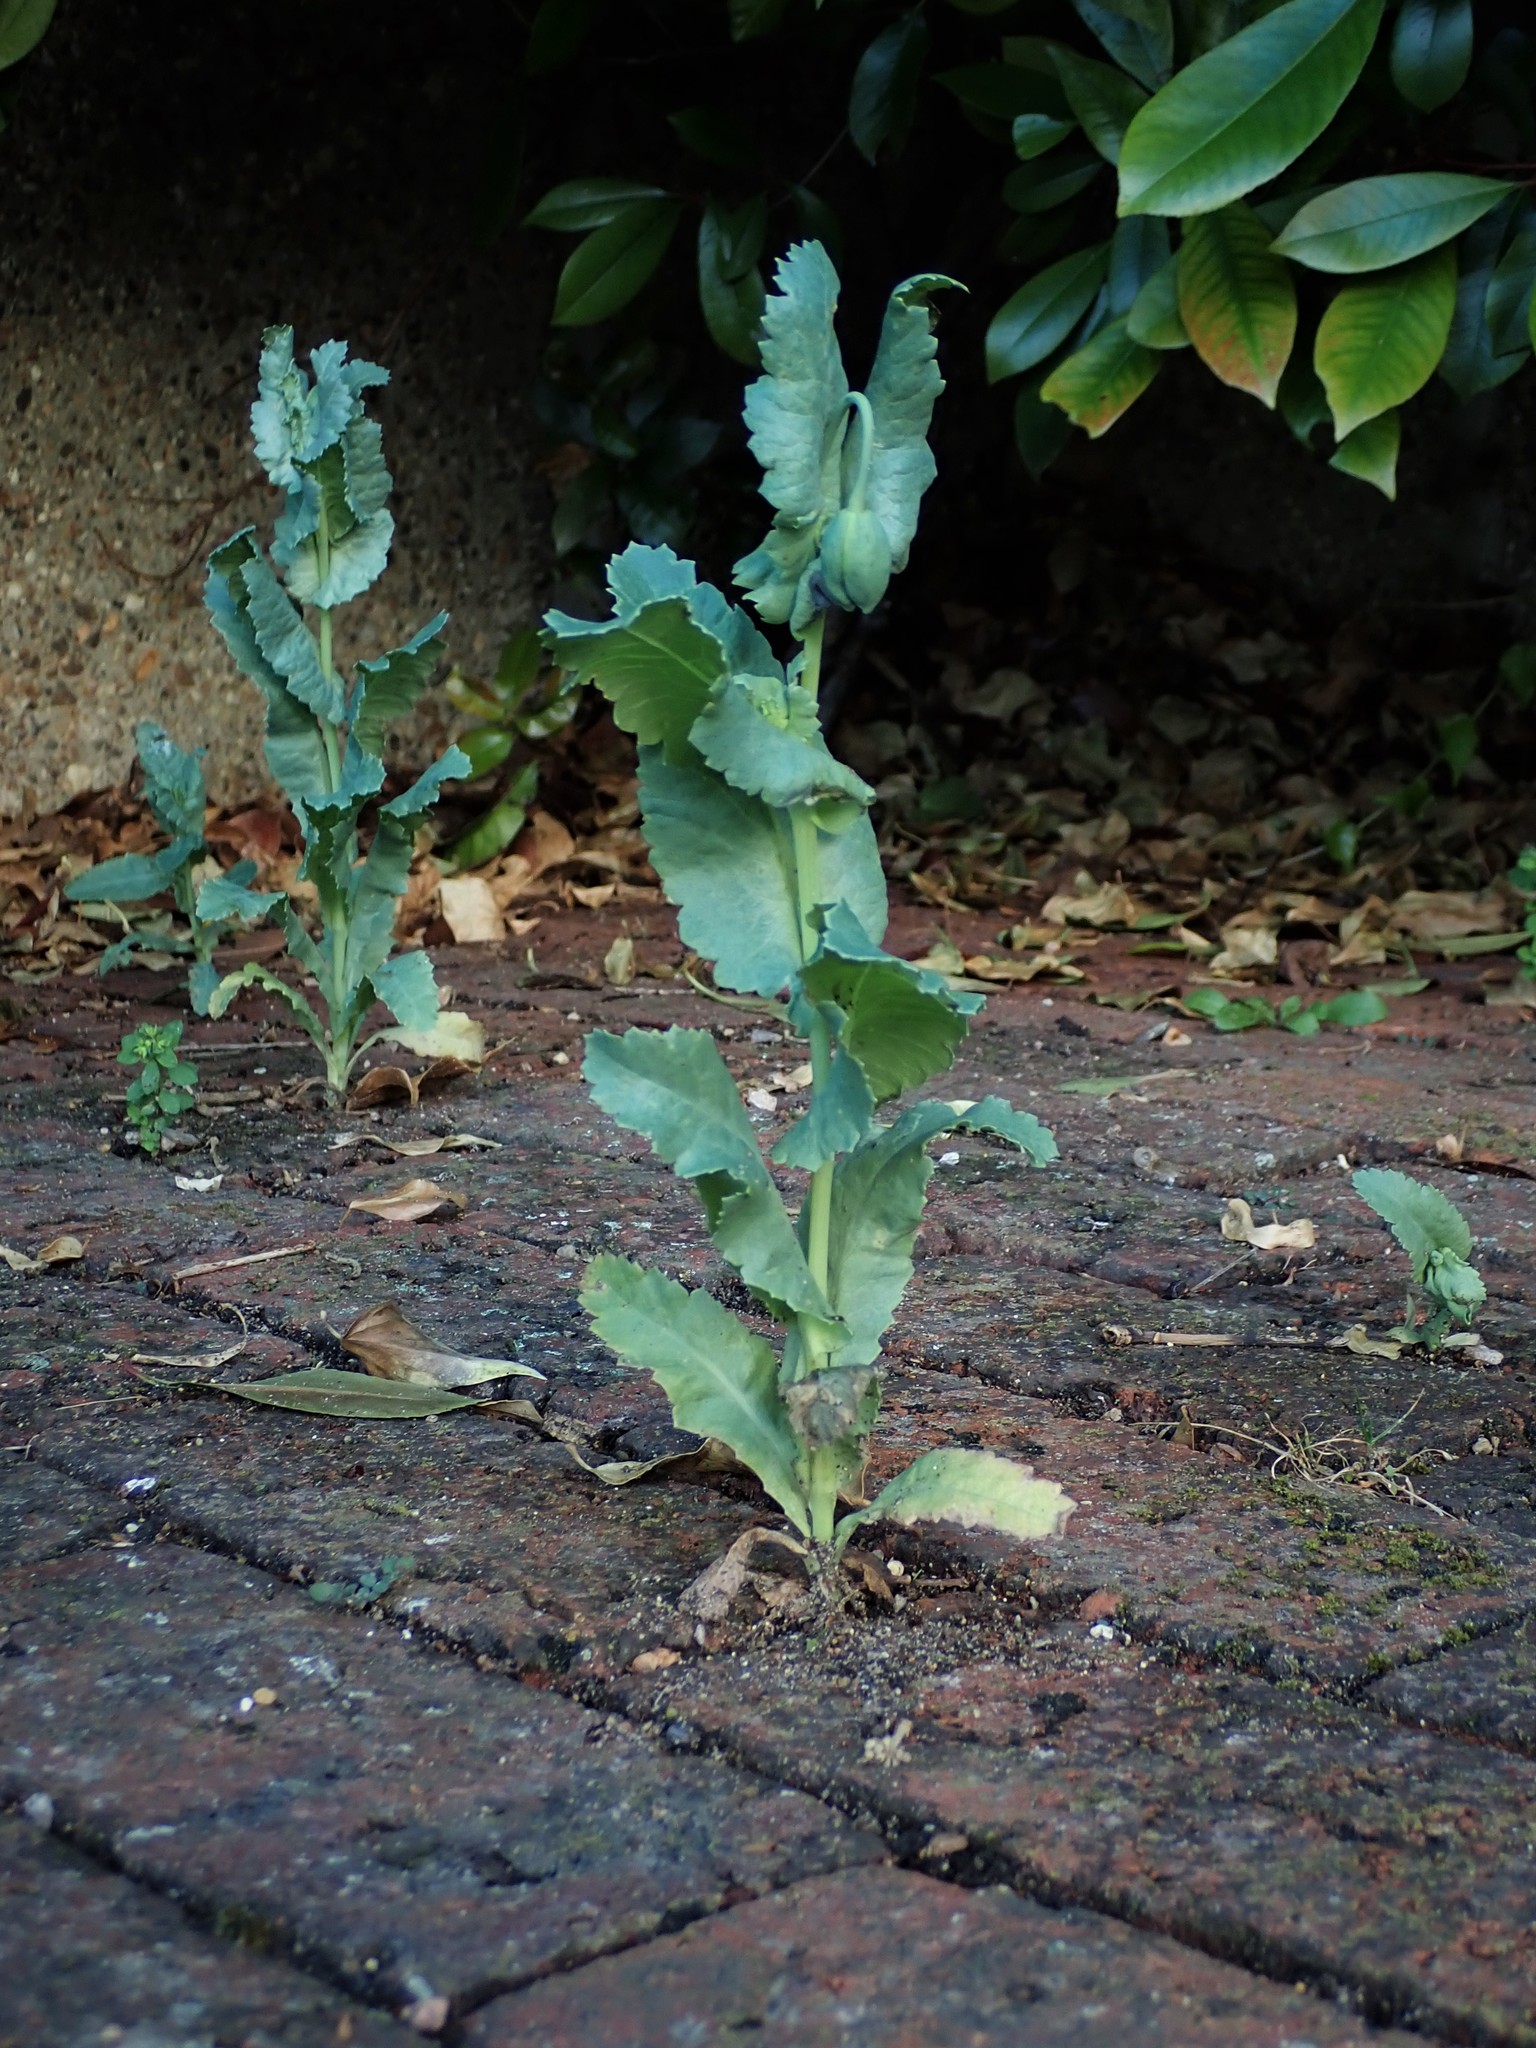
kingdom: Plantae
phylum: Tracheophyta
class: Magnoliopsida
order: Ranunculales
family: Papaveraceae
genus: Papaver
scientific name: Papaver somniferum
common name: Opium poppy
